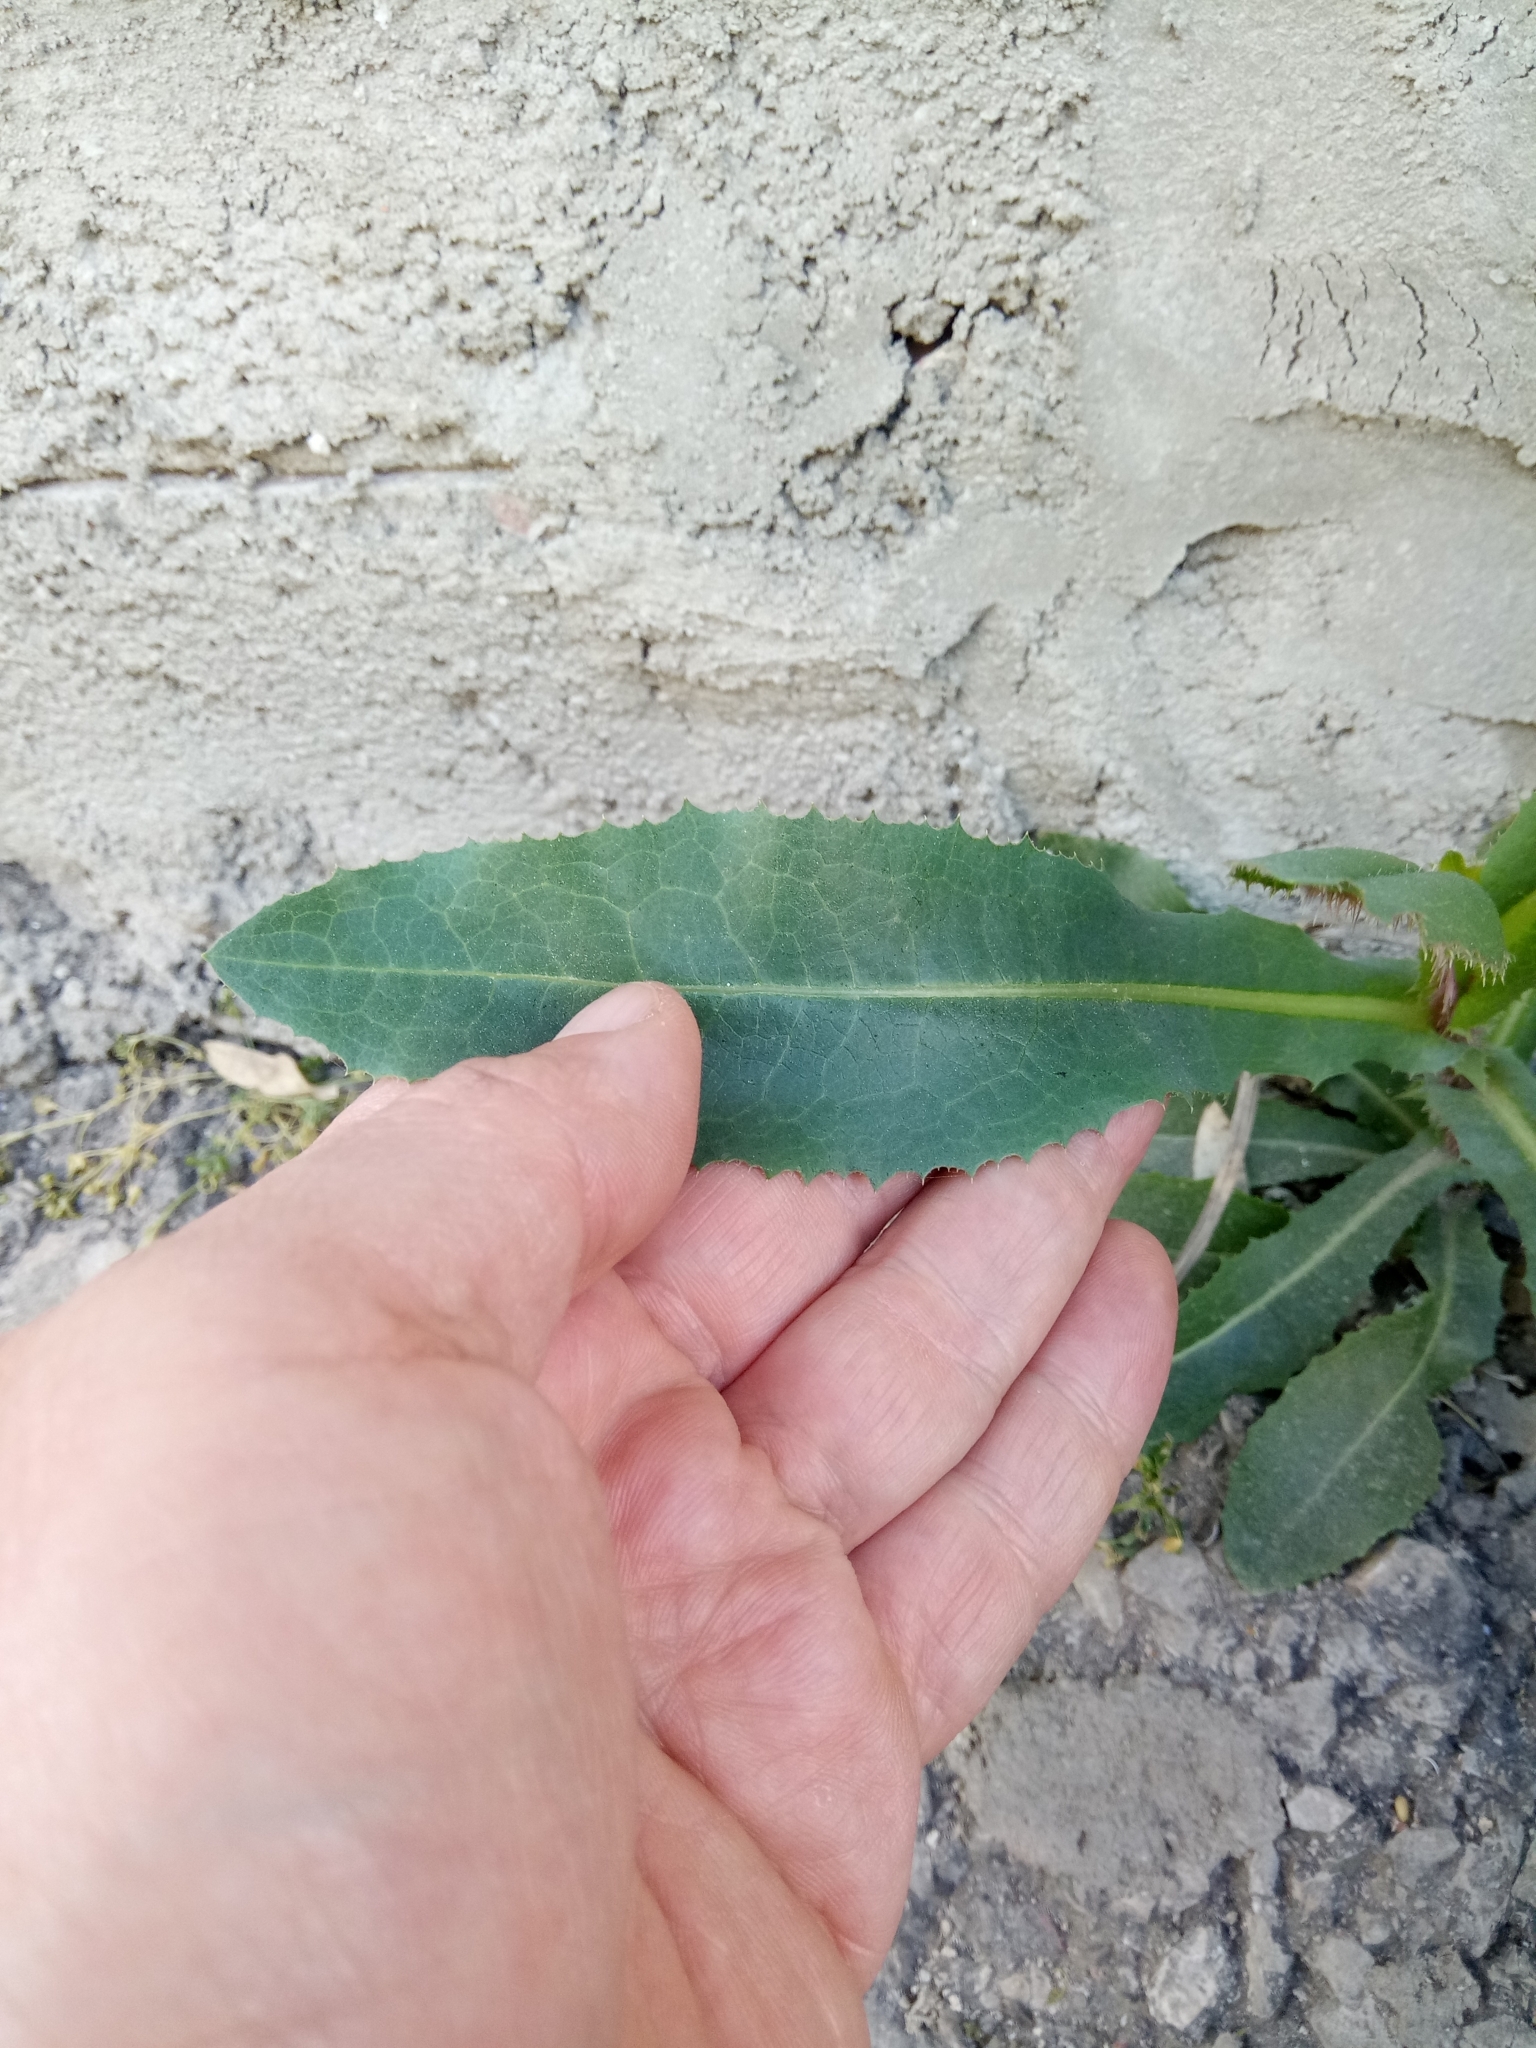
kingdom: Plantae
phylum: Tracheophyta
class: Magnoliopsida
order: Asterales
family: Asteraceae
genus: Lactuca
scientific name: Lactuca serriola
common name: Prickly lettuce
